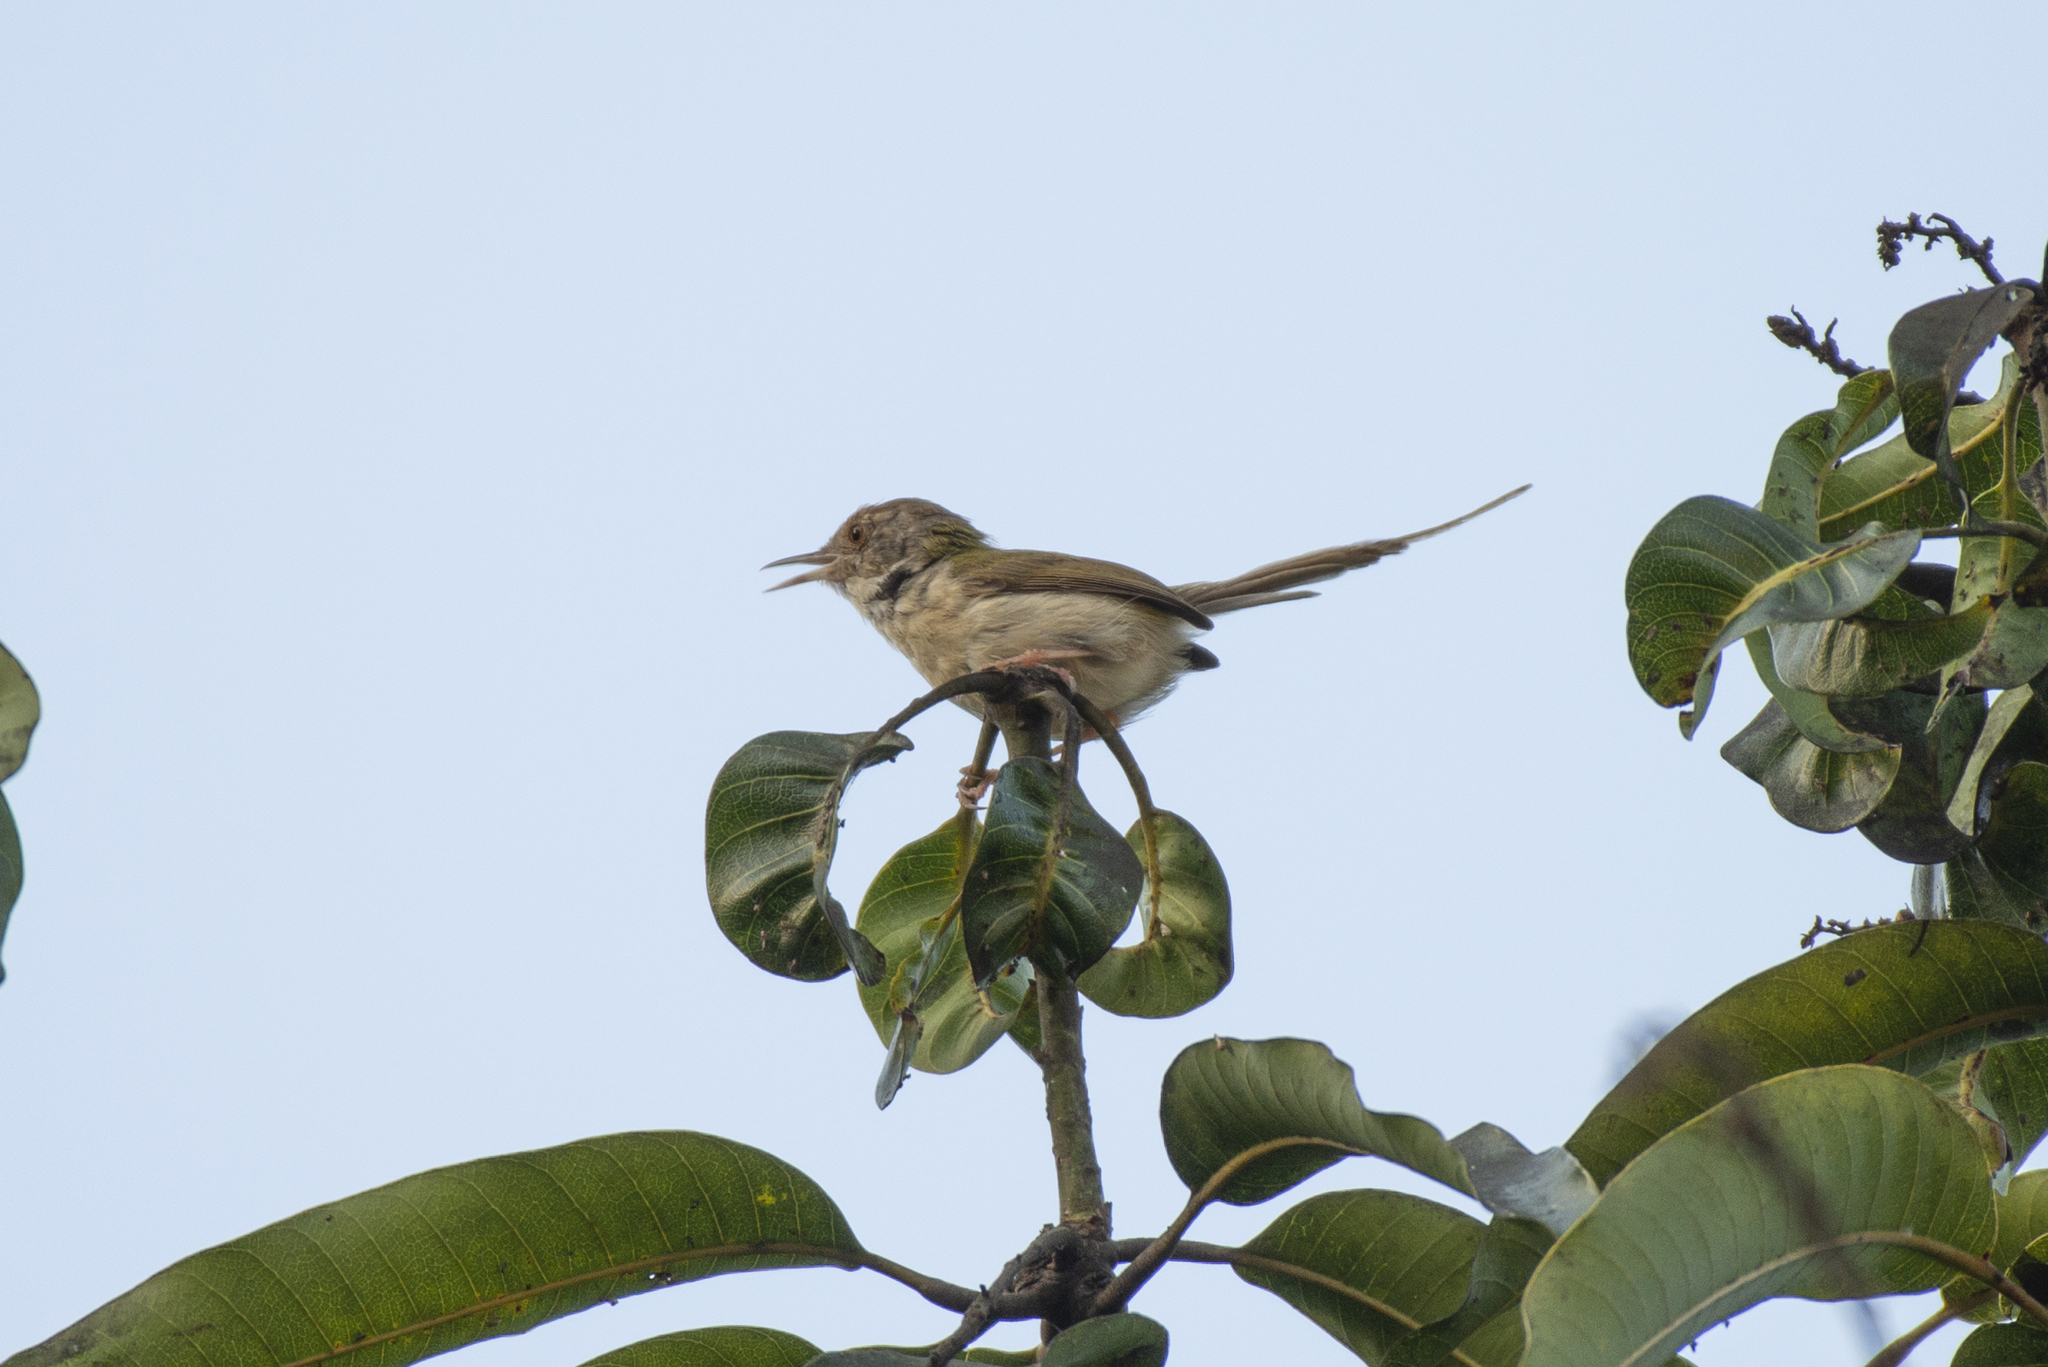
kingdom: Animalia
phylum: Chordata
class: Aves
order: Passeriformes
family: Cisticolidae
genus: Orthotomus
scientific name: Orthotomus sutorius
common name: Common tailorbird
